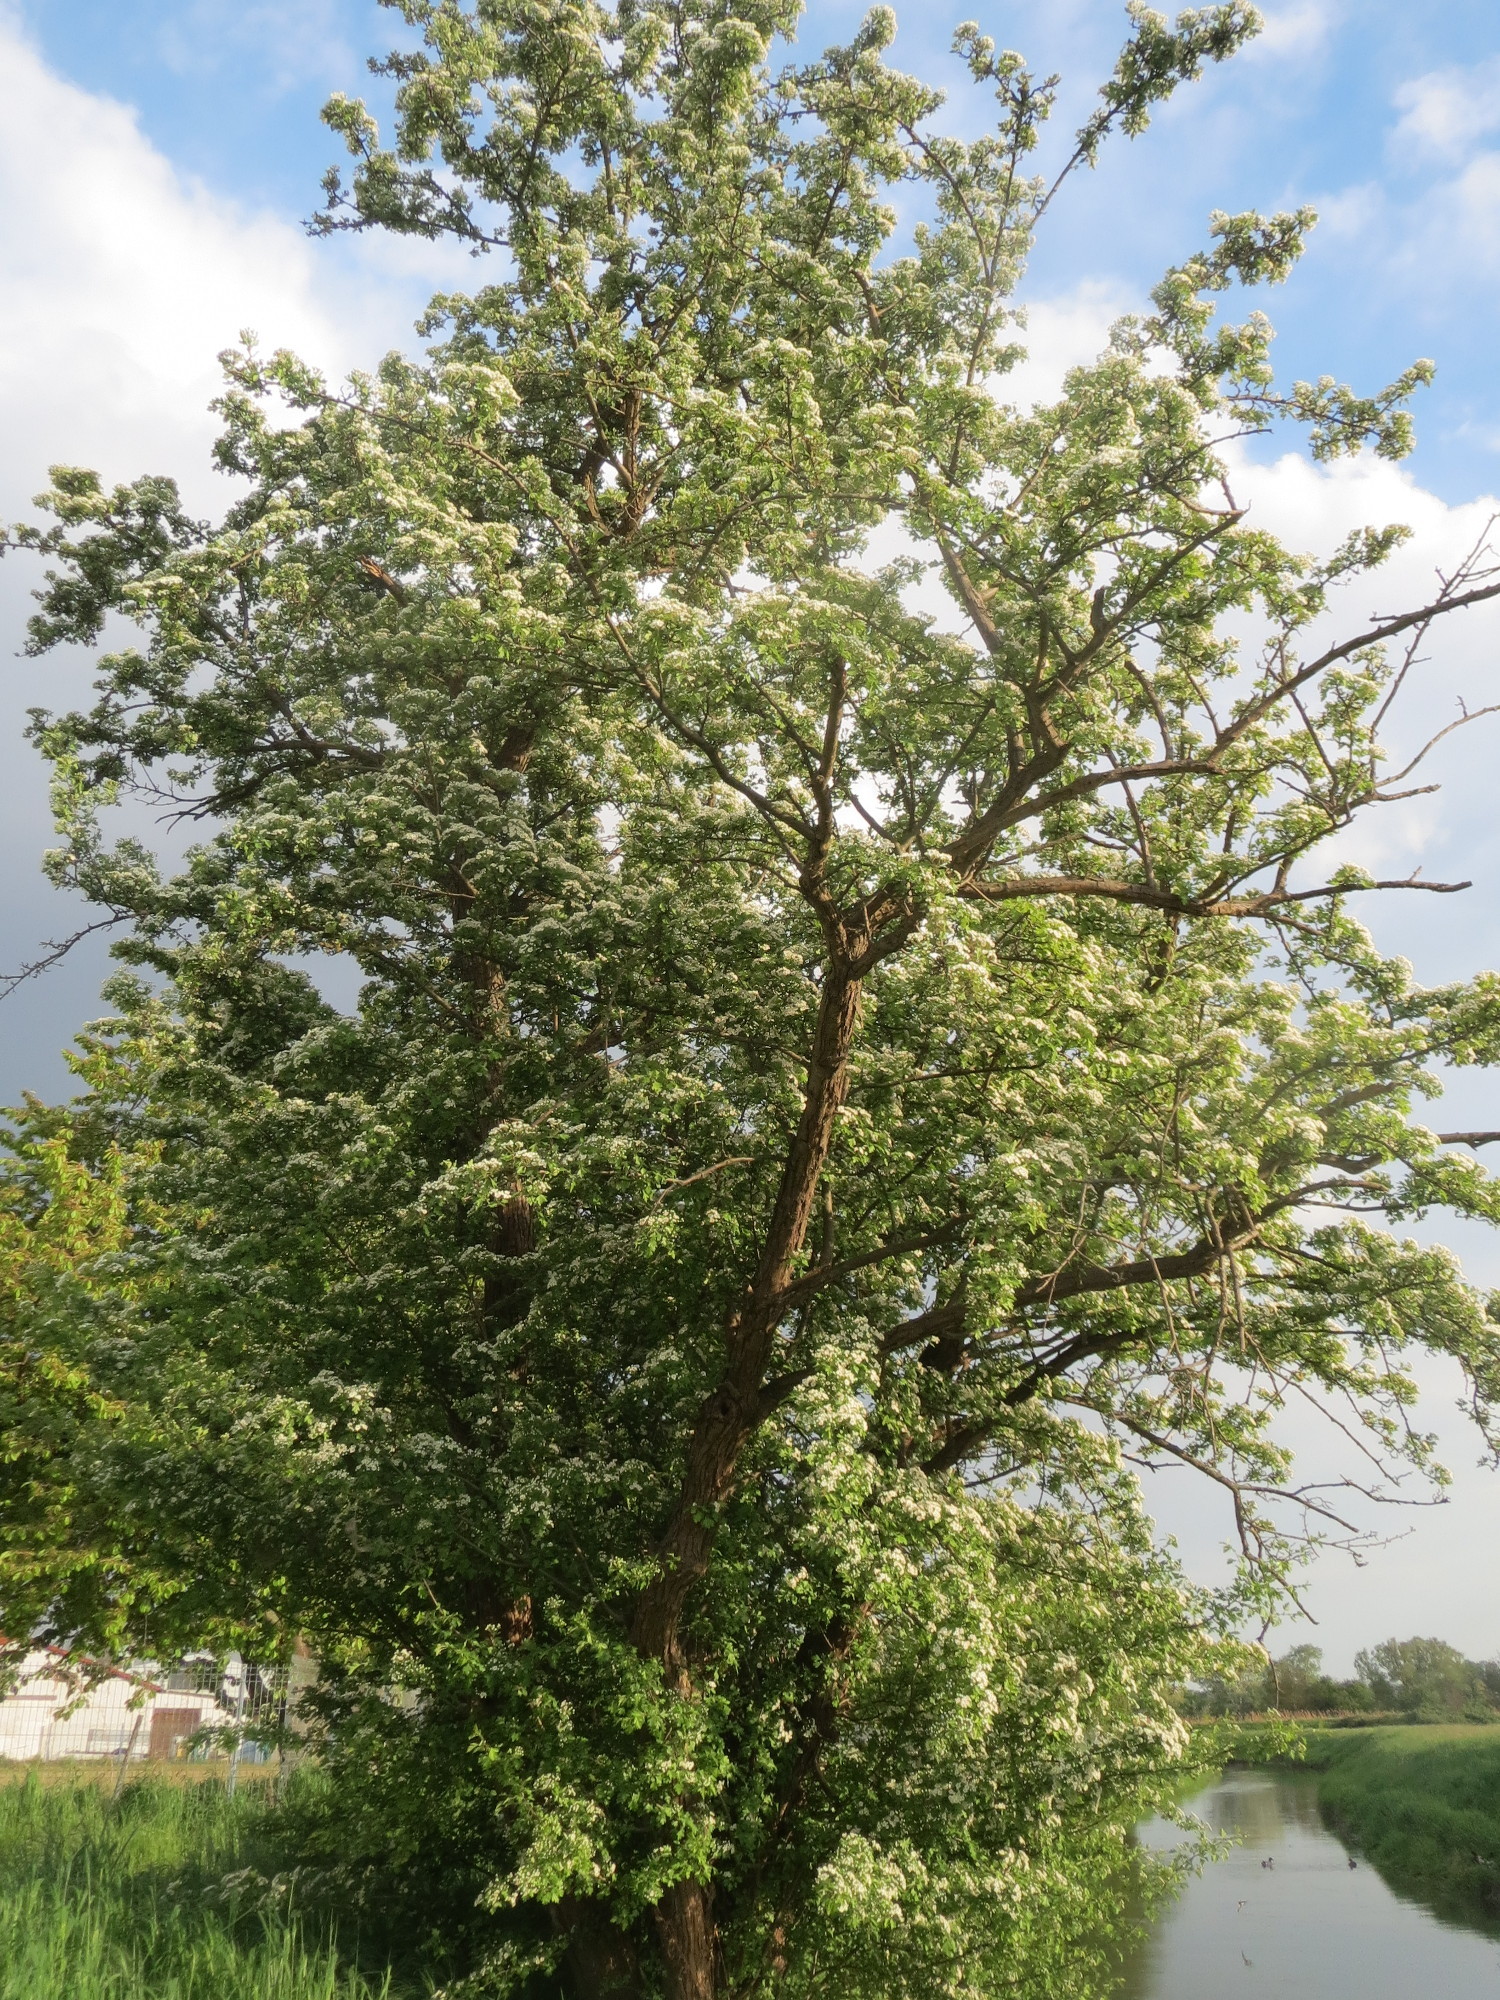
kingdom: Plantae
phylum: Tracheophyta
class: Magnoliopsida
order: Rosales
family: Rosaceae
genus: Crataegus
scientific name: Crataegus monogyna
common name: Hawthorn
